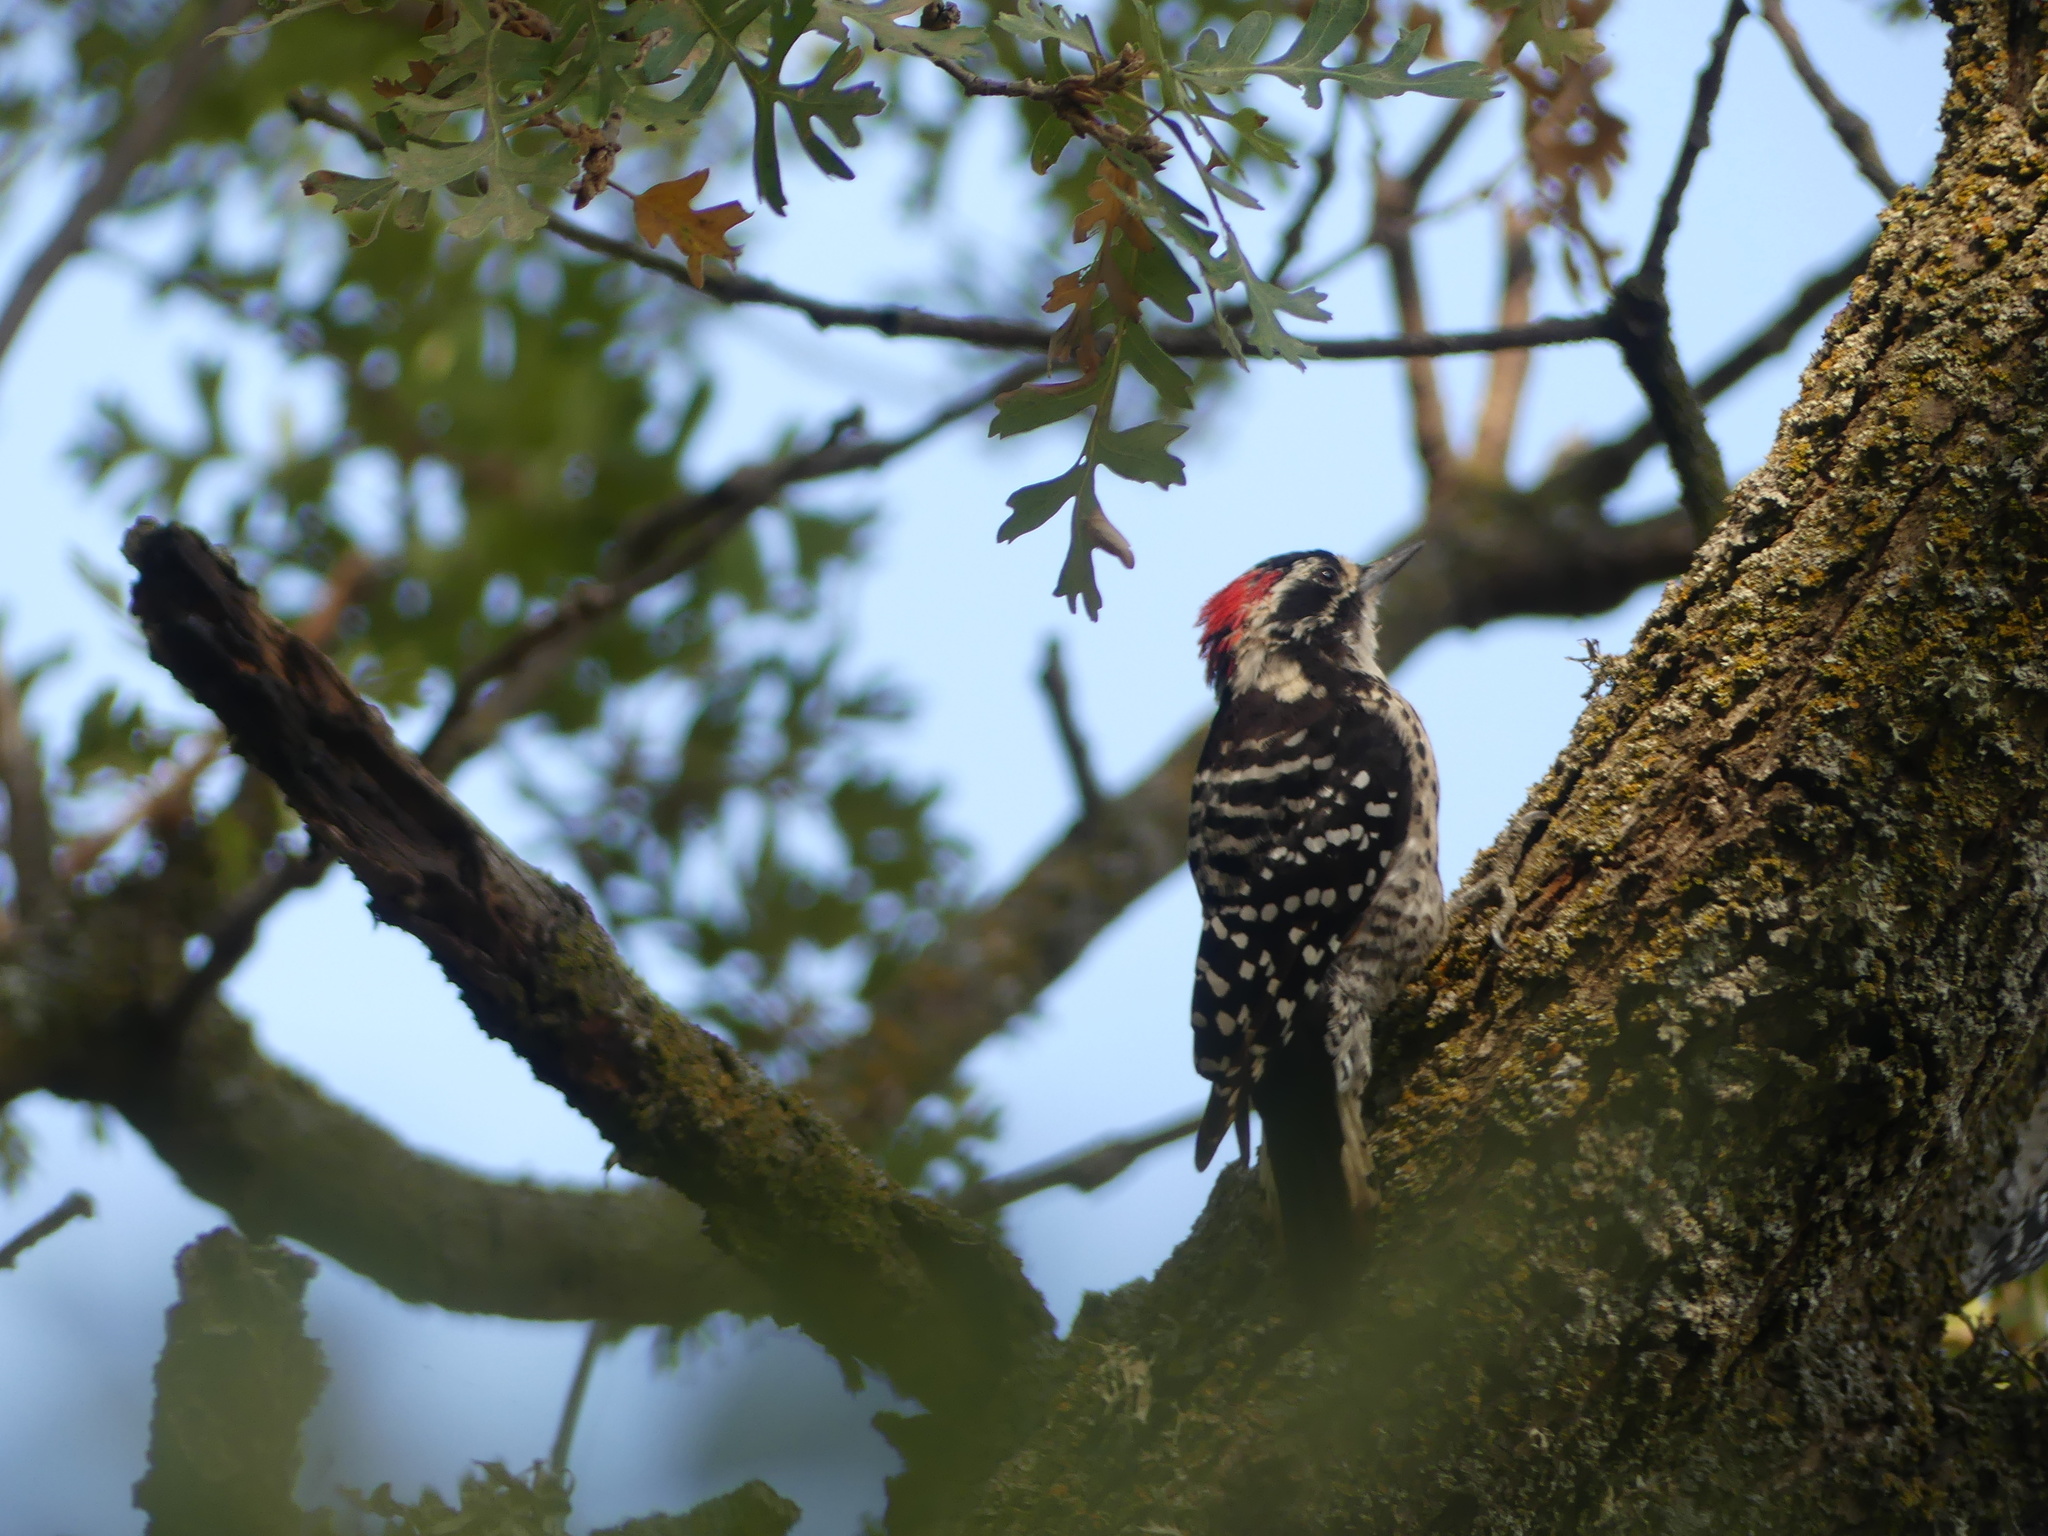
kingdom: Animalia
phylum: Chordata
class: Aves
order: Piciformes
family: Picidae
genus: Dryobates
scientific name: Dryobates nuttallii
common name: Nuttall's woodpecker
